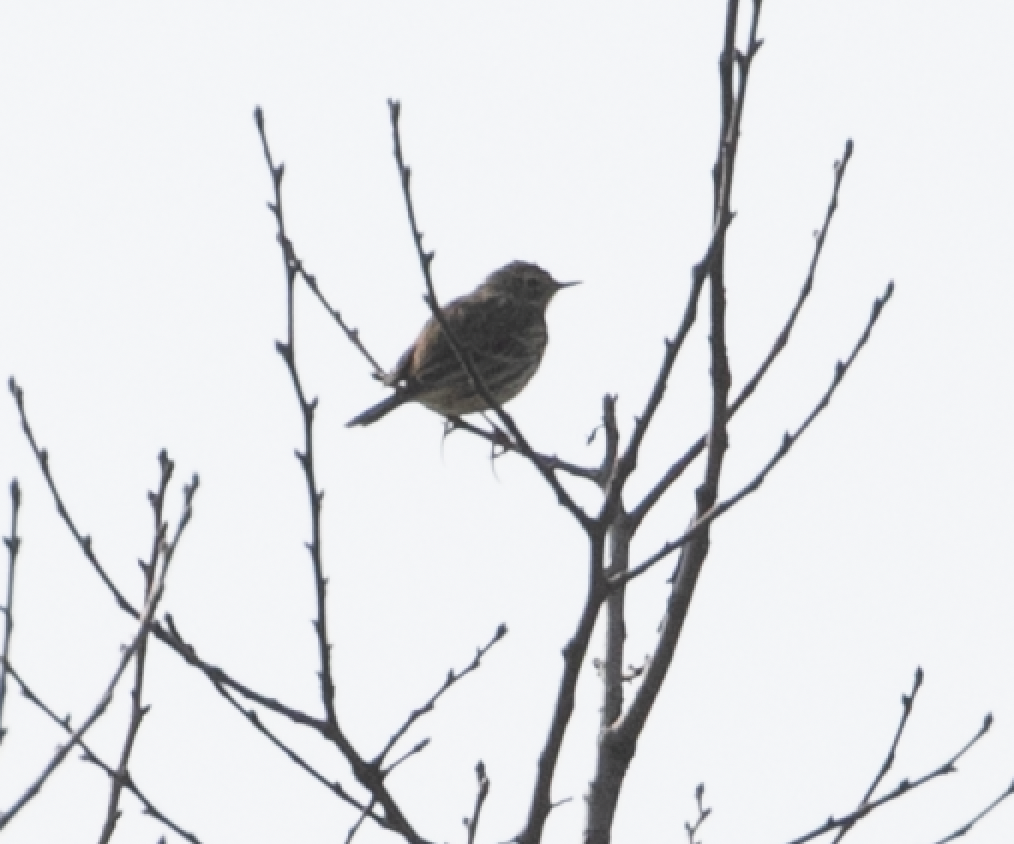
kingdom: Animalia
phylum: Chordata
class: Aves
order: Passeriformes
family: Motacillidae
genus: Anthus
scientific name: Anthus pratensis
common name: Meadow pipit
